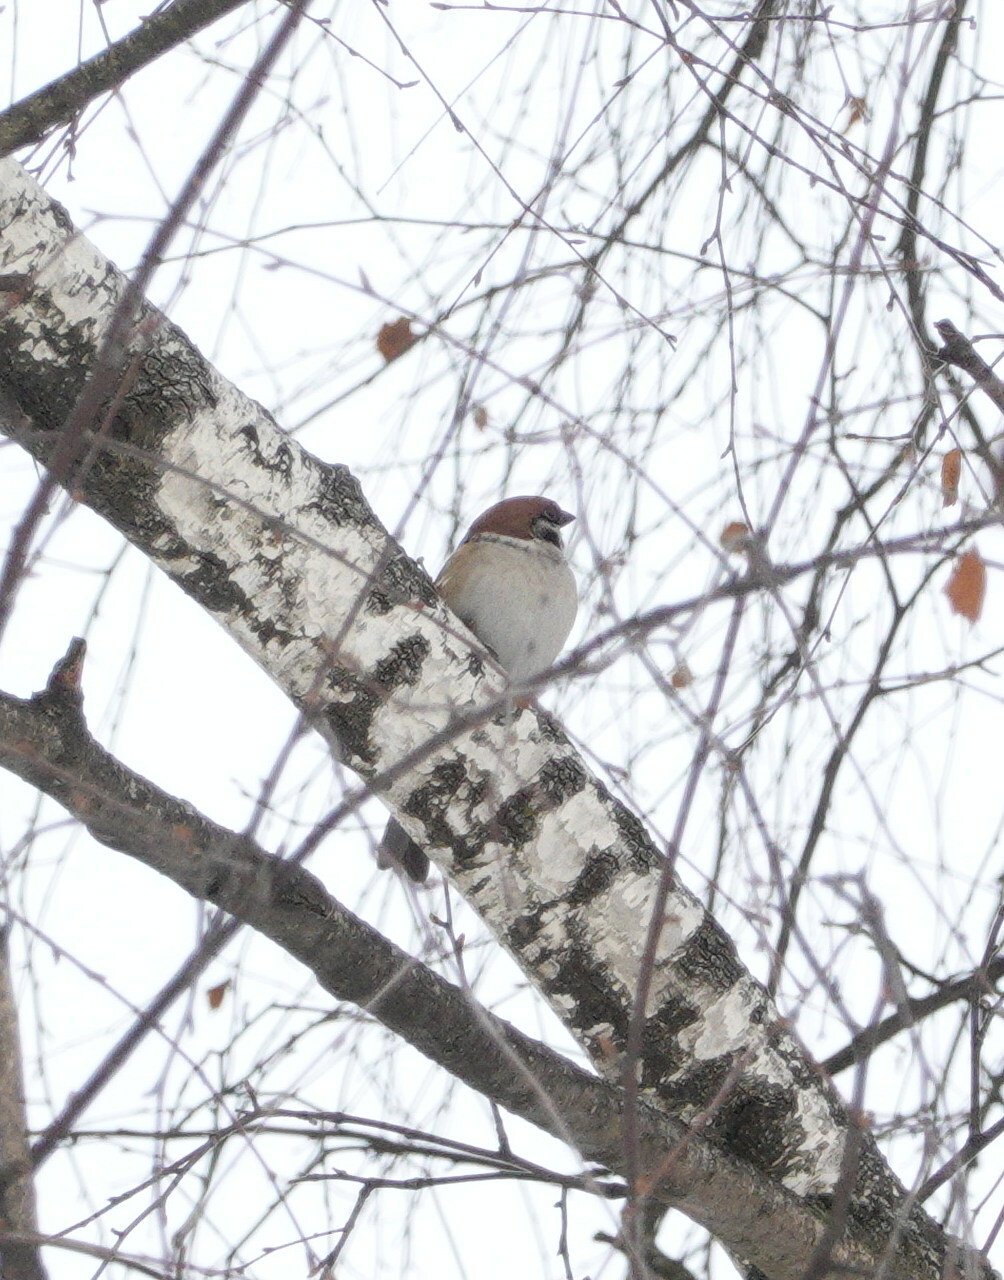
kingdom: Animalia
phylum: Chordata
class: Aves
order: Passeriformes
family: Passeridae
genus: Passer
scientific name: Passer montanus
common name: Eurasian tree sparrow
